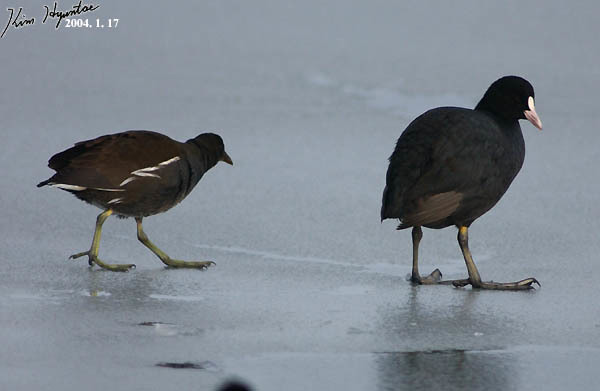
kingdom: Animalia
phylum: Chordata
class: Aves
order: Gruiformes
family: Rallidae
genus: Gallinula
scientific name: Gallinula chloropus
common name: Common moorhen
